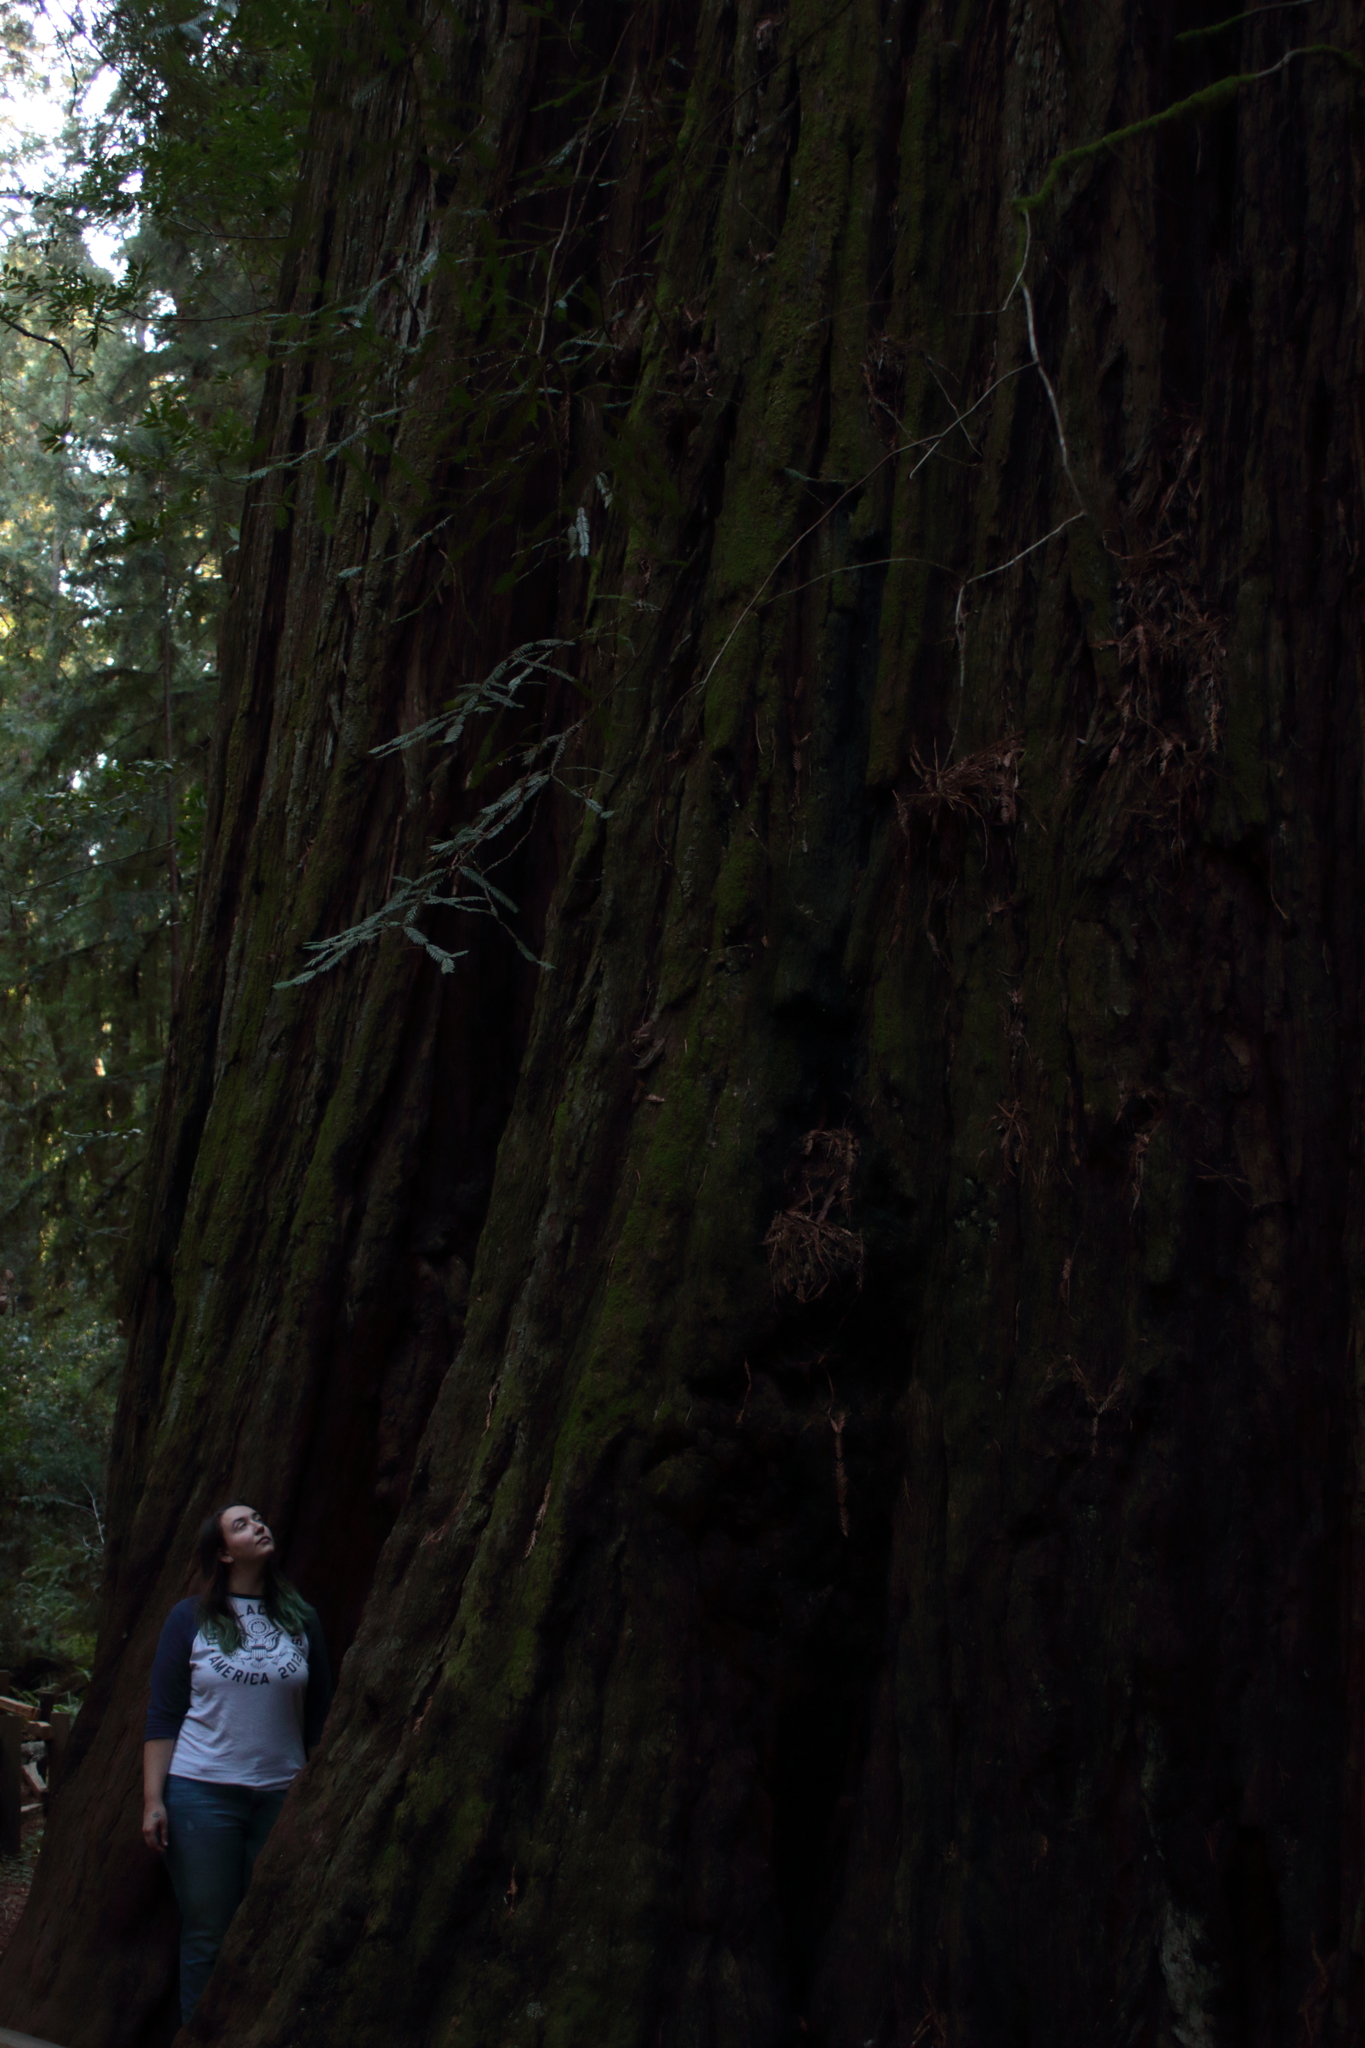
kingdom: Plantae
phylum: Tracheophyta
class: Pinopsida
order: Pinales
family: Cupressaceae
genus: Sequoia
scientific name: Sequoia sempervirens
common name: Coast redwood
